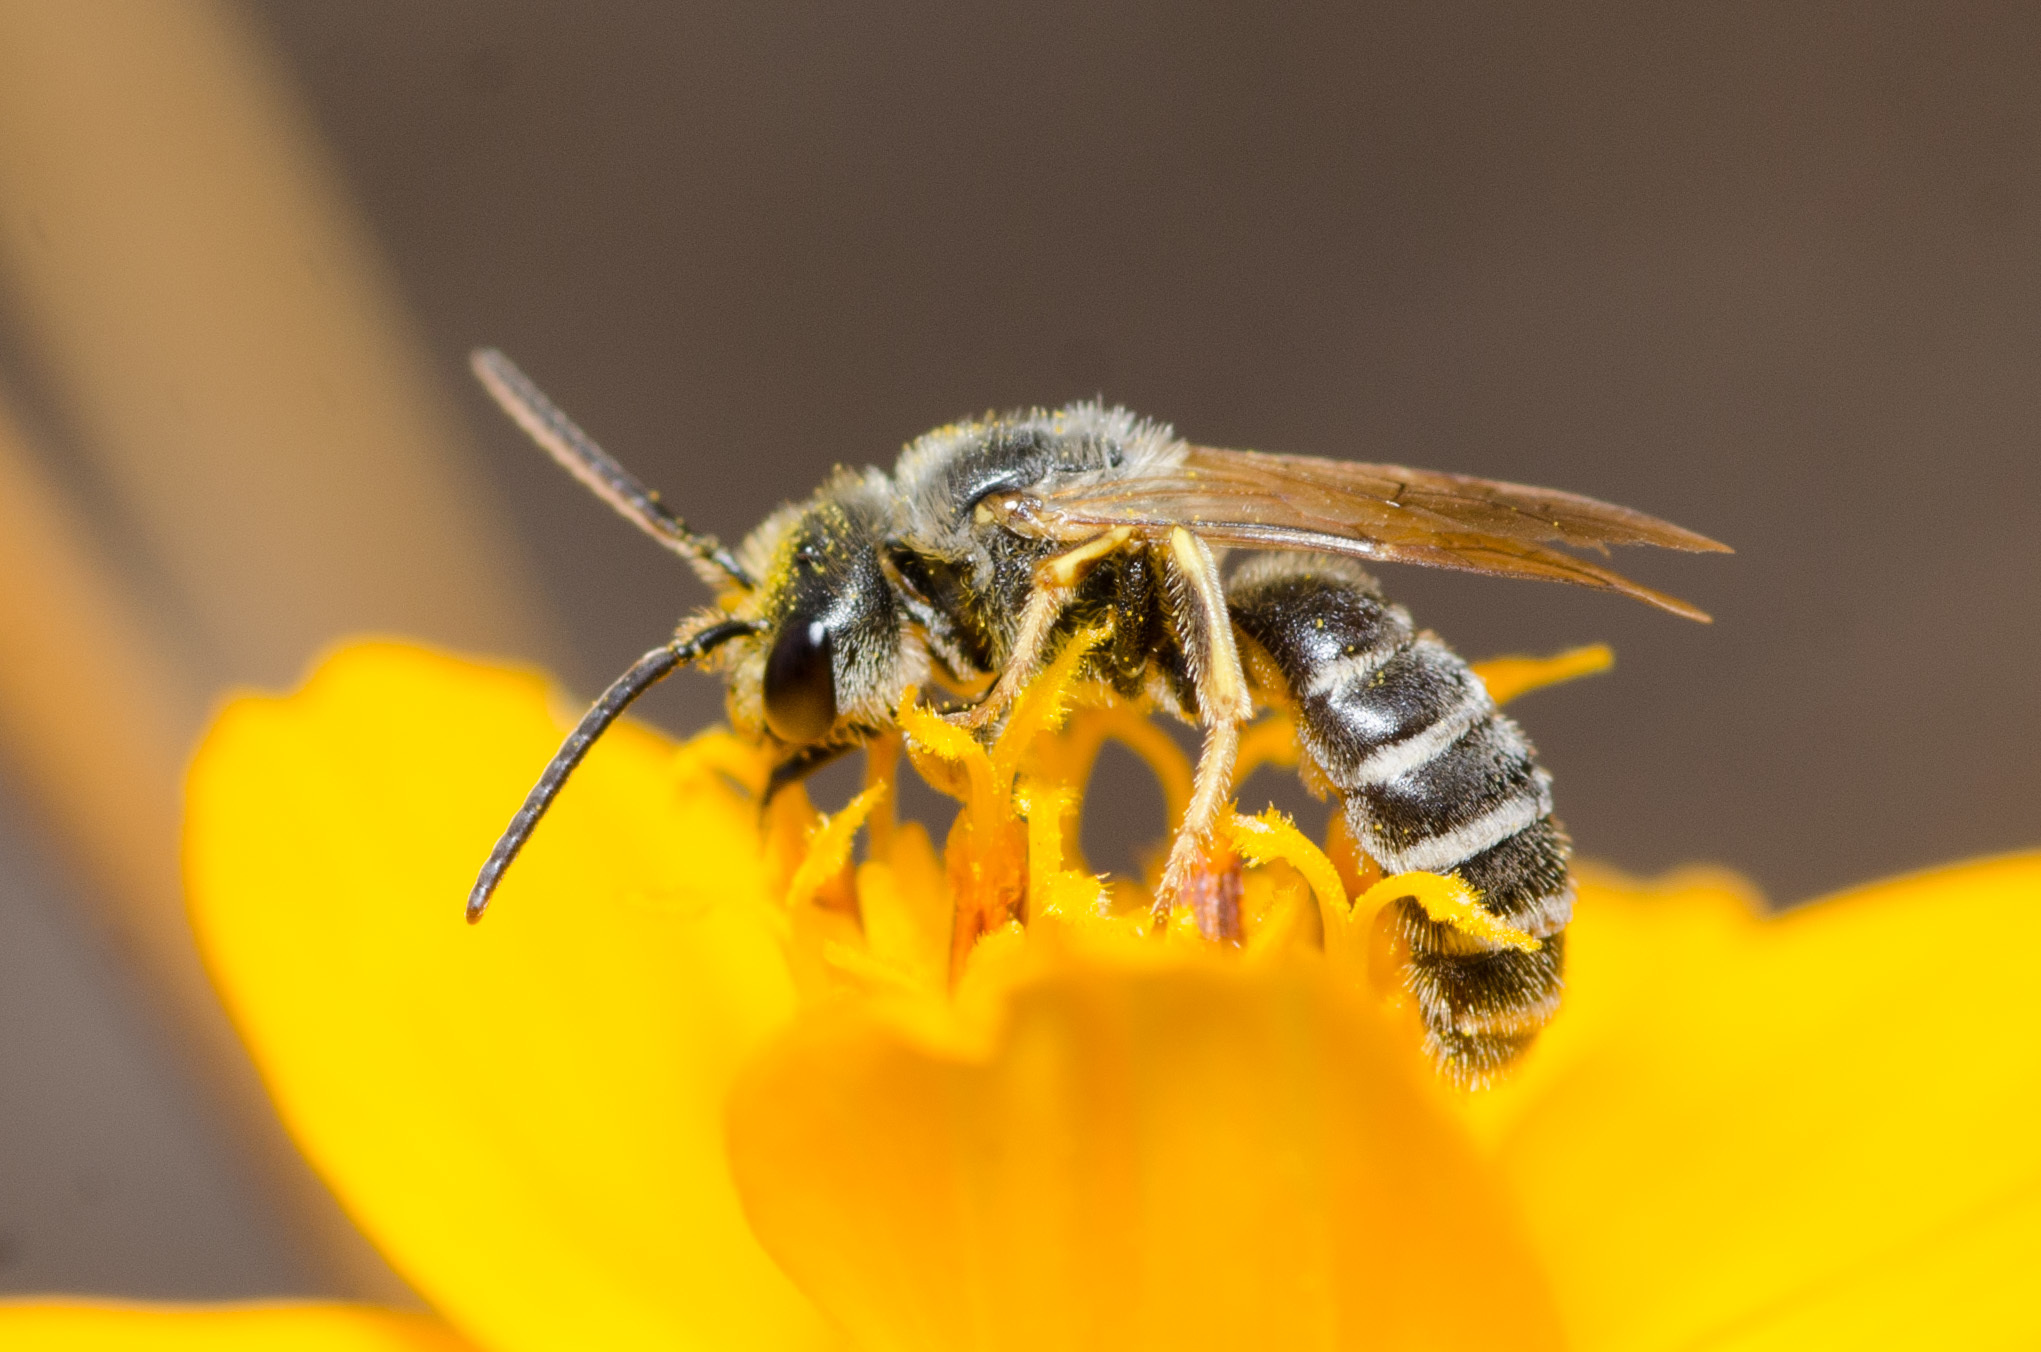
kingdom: Animalia
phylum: Arthropoda
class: Insecta
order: Hymenoptera
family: Halictidae
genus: Halictus
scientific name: Halictus ligatus
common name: Ligated furrow bee
